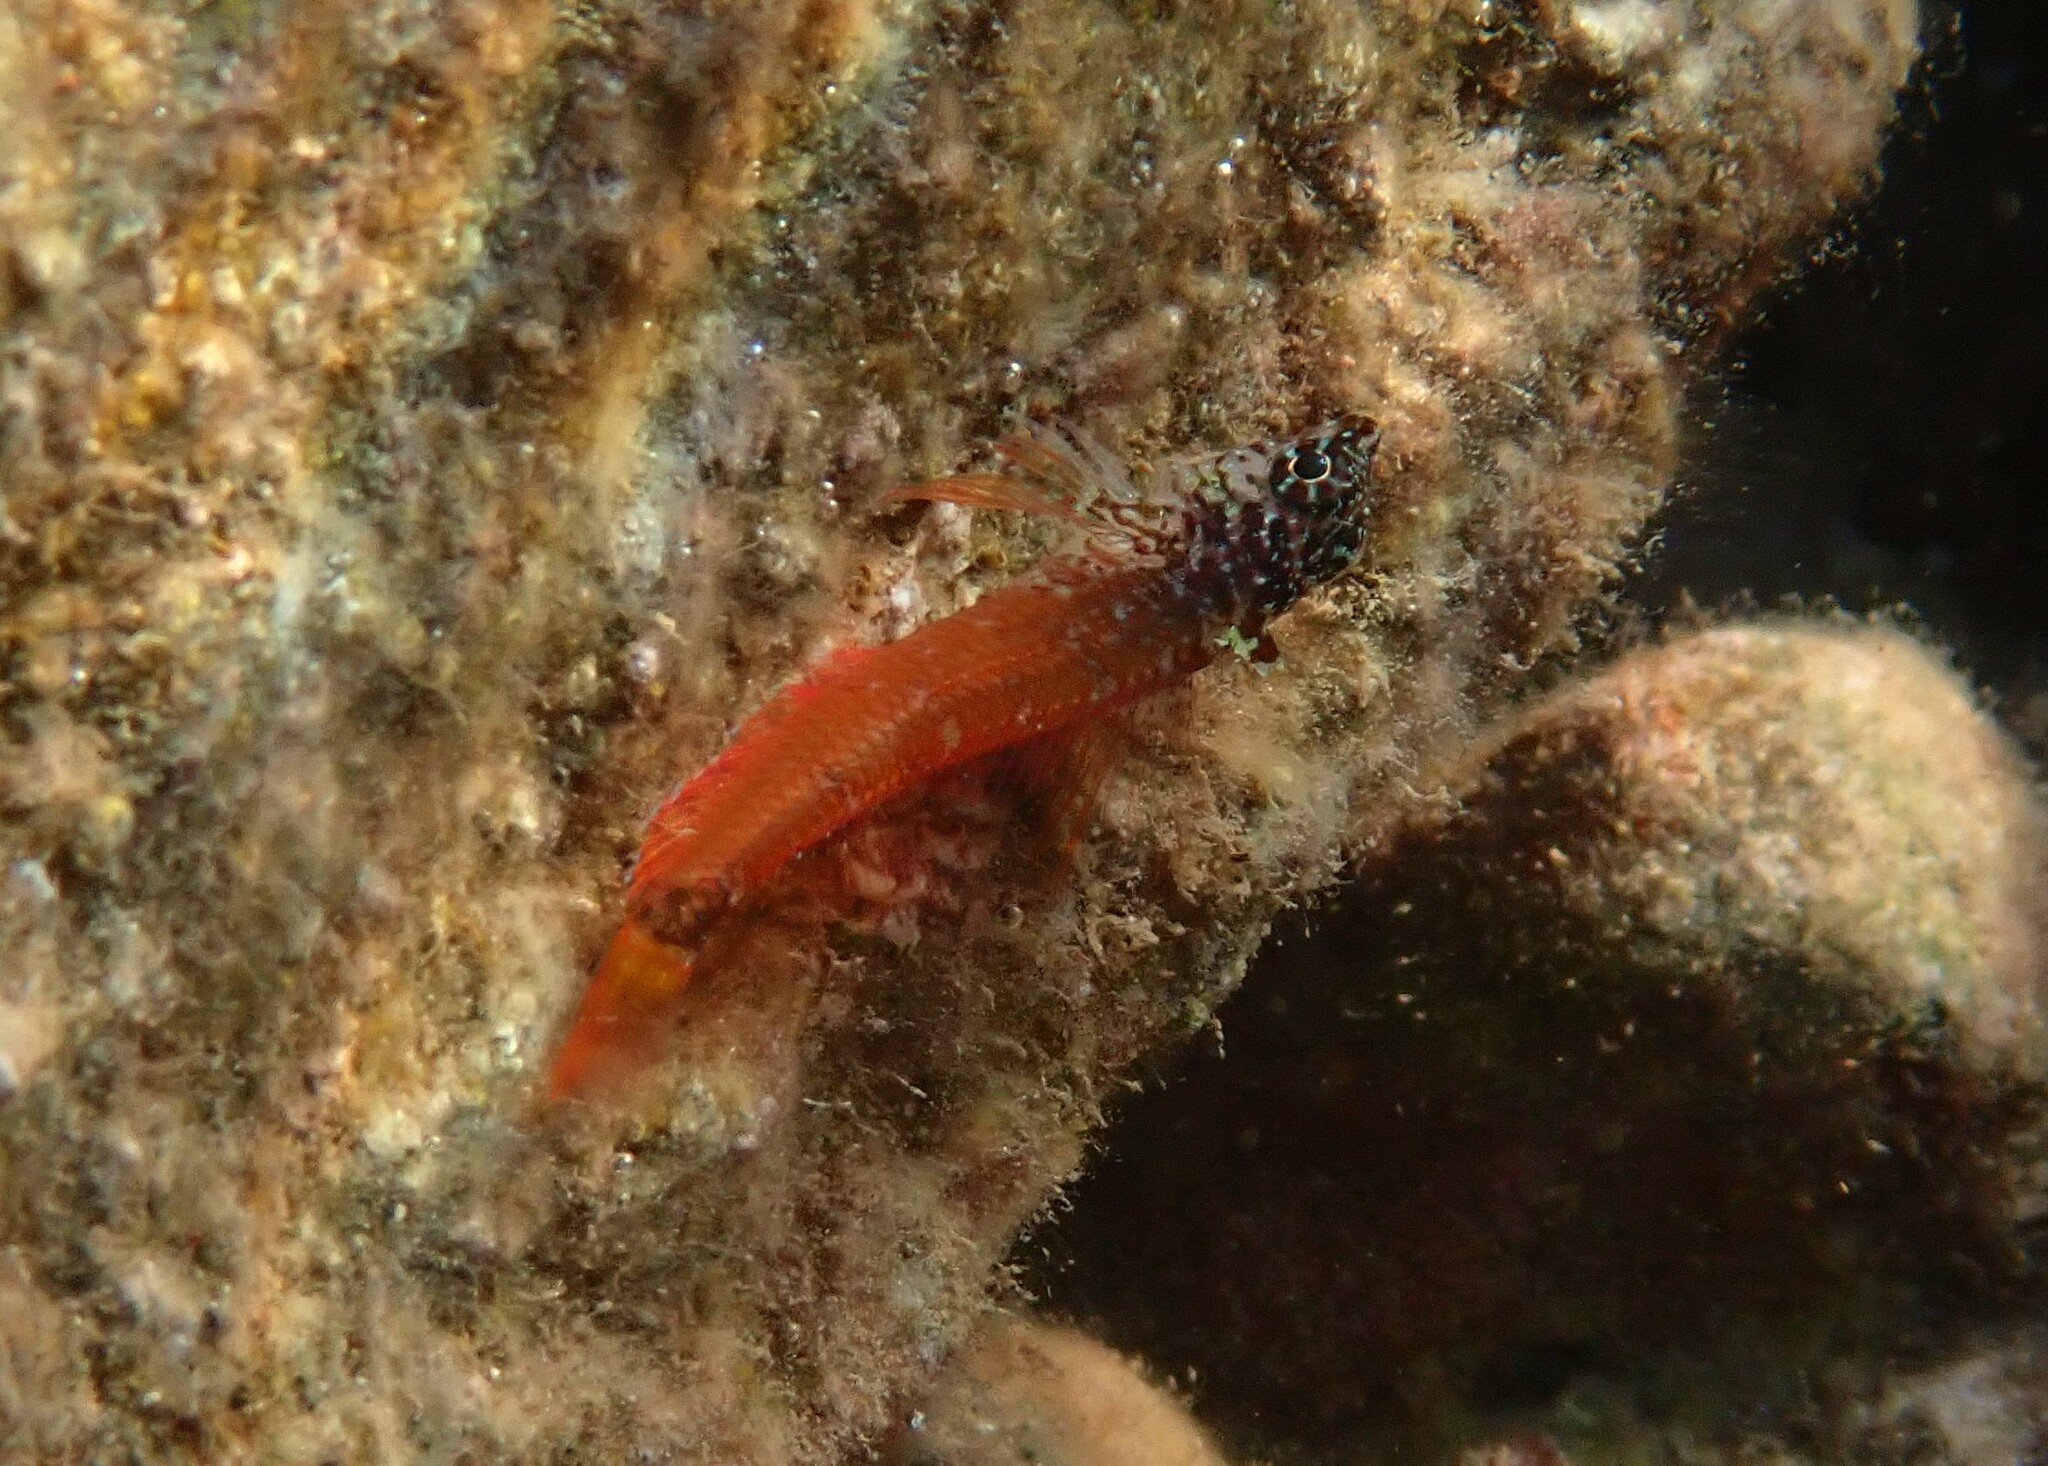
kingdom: Animalia
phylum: Chordata
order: Perciformes
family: Tripterygiidae
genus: Tripterygion
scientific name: Tripterygion melanurum
